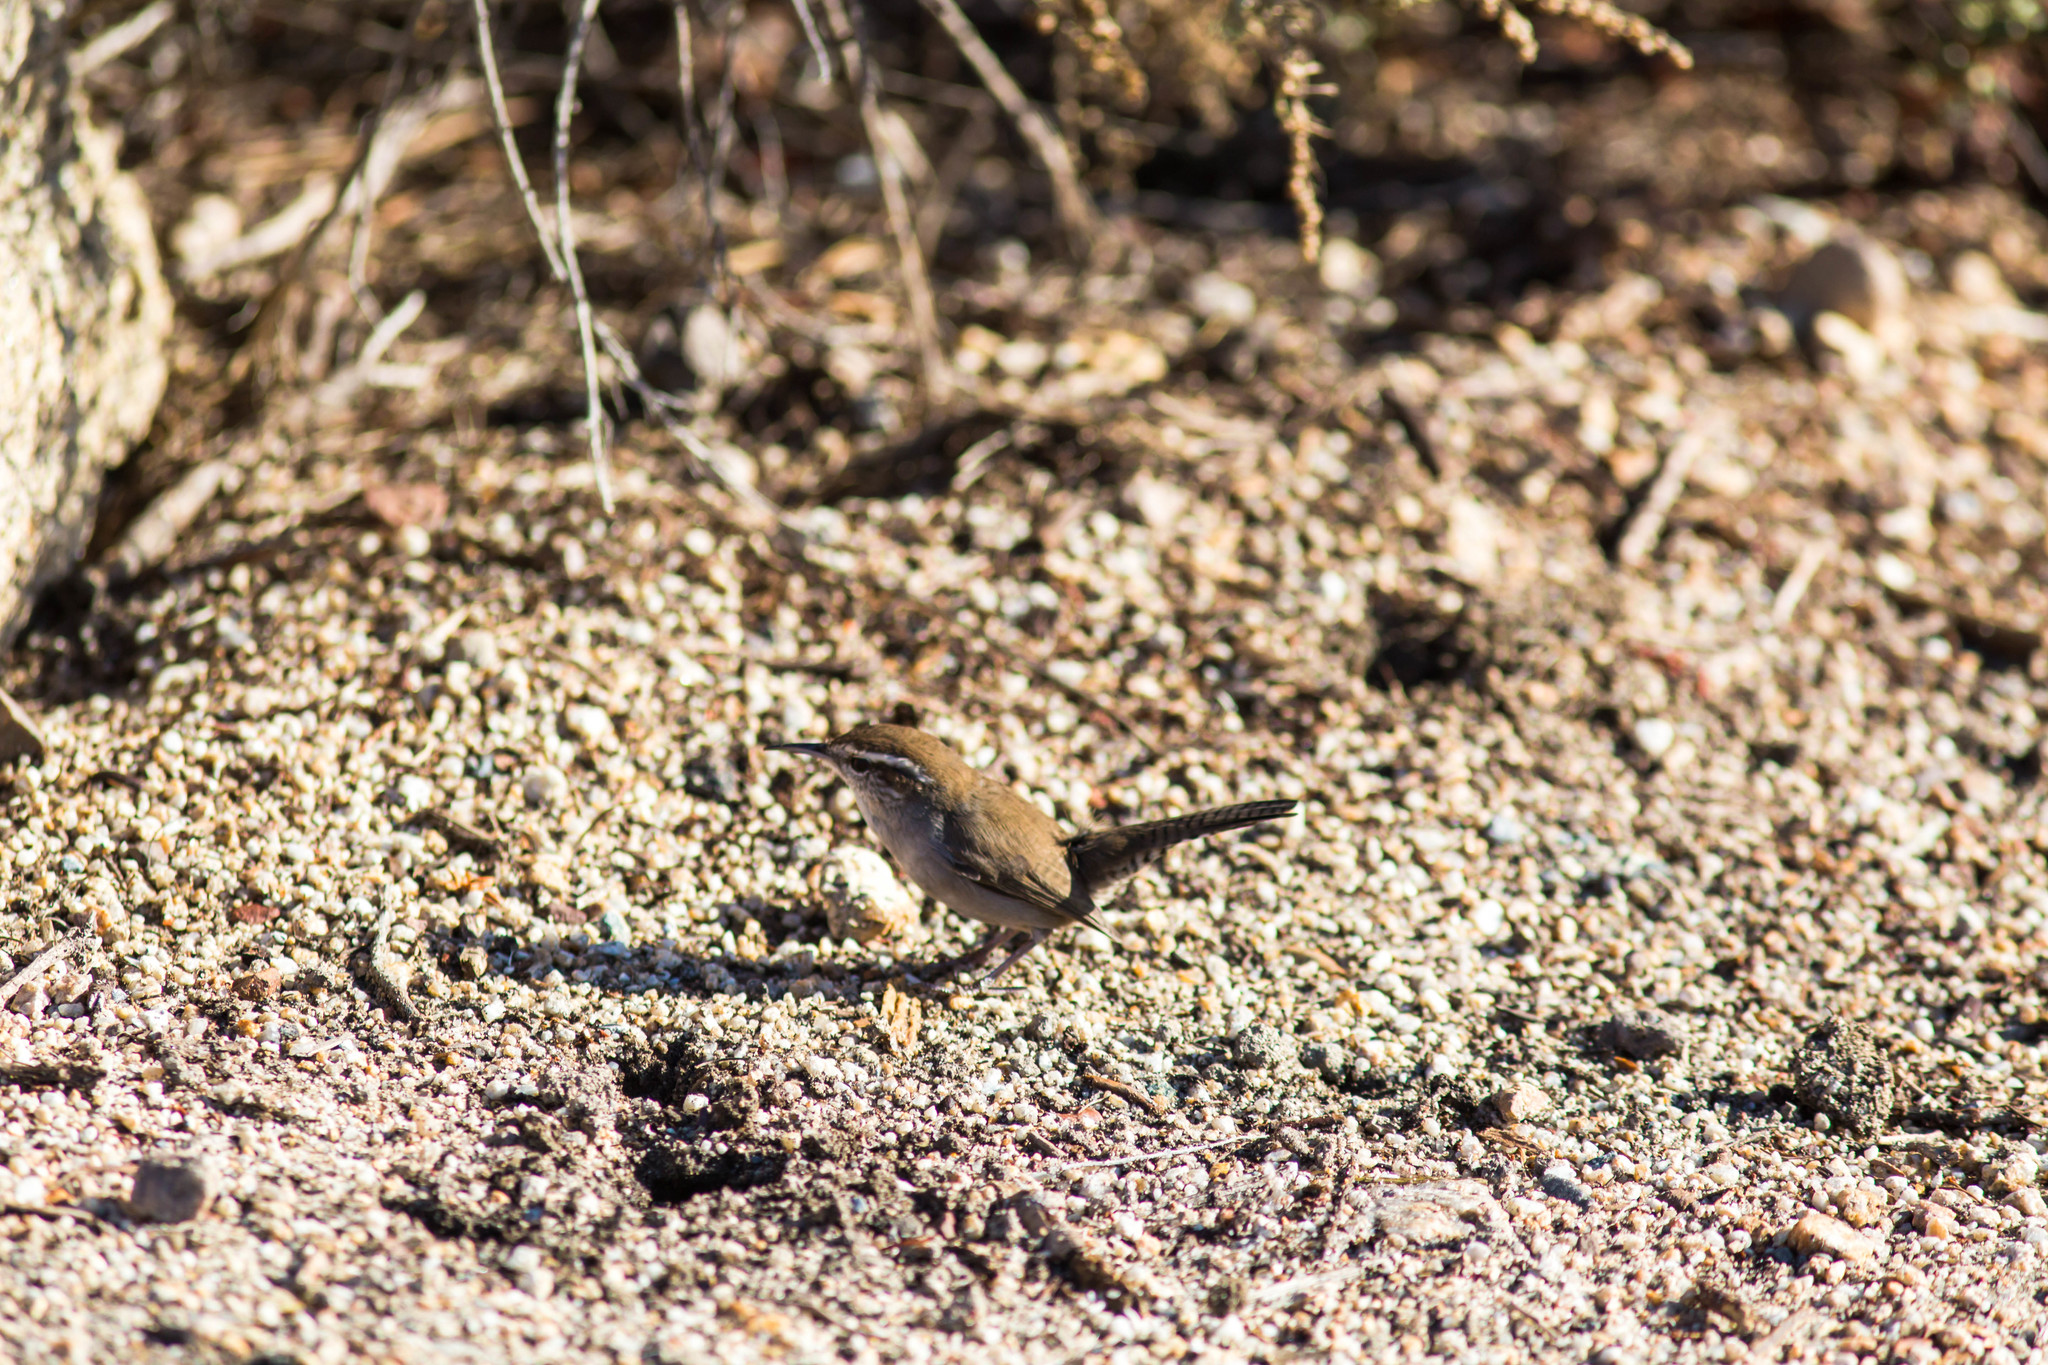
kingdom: Animalia
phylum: Chordata
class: Aves
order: Passeriformes
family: Troglodytidae
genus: Thryomanes
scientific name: Thryomanes bewickii
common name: Bewick's wren
